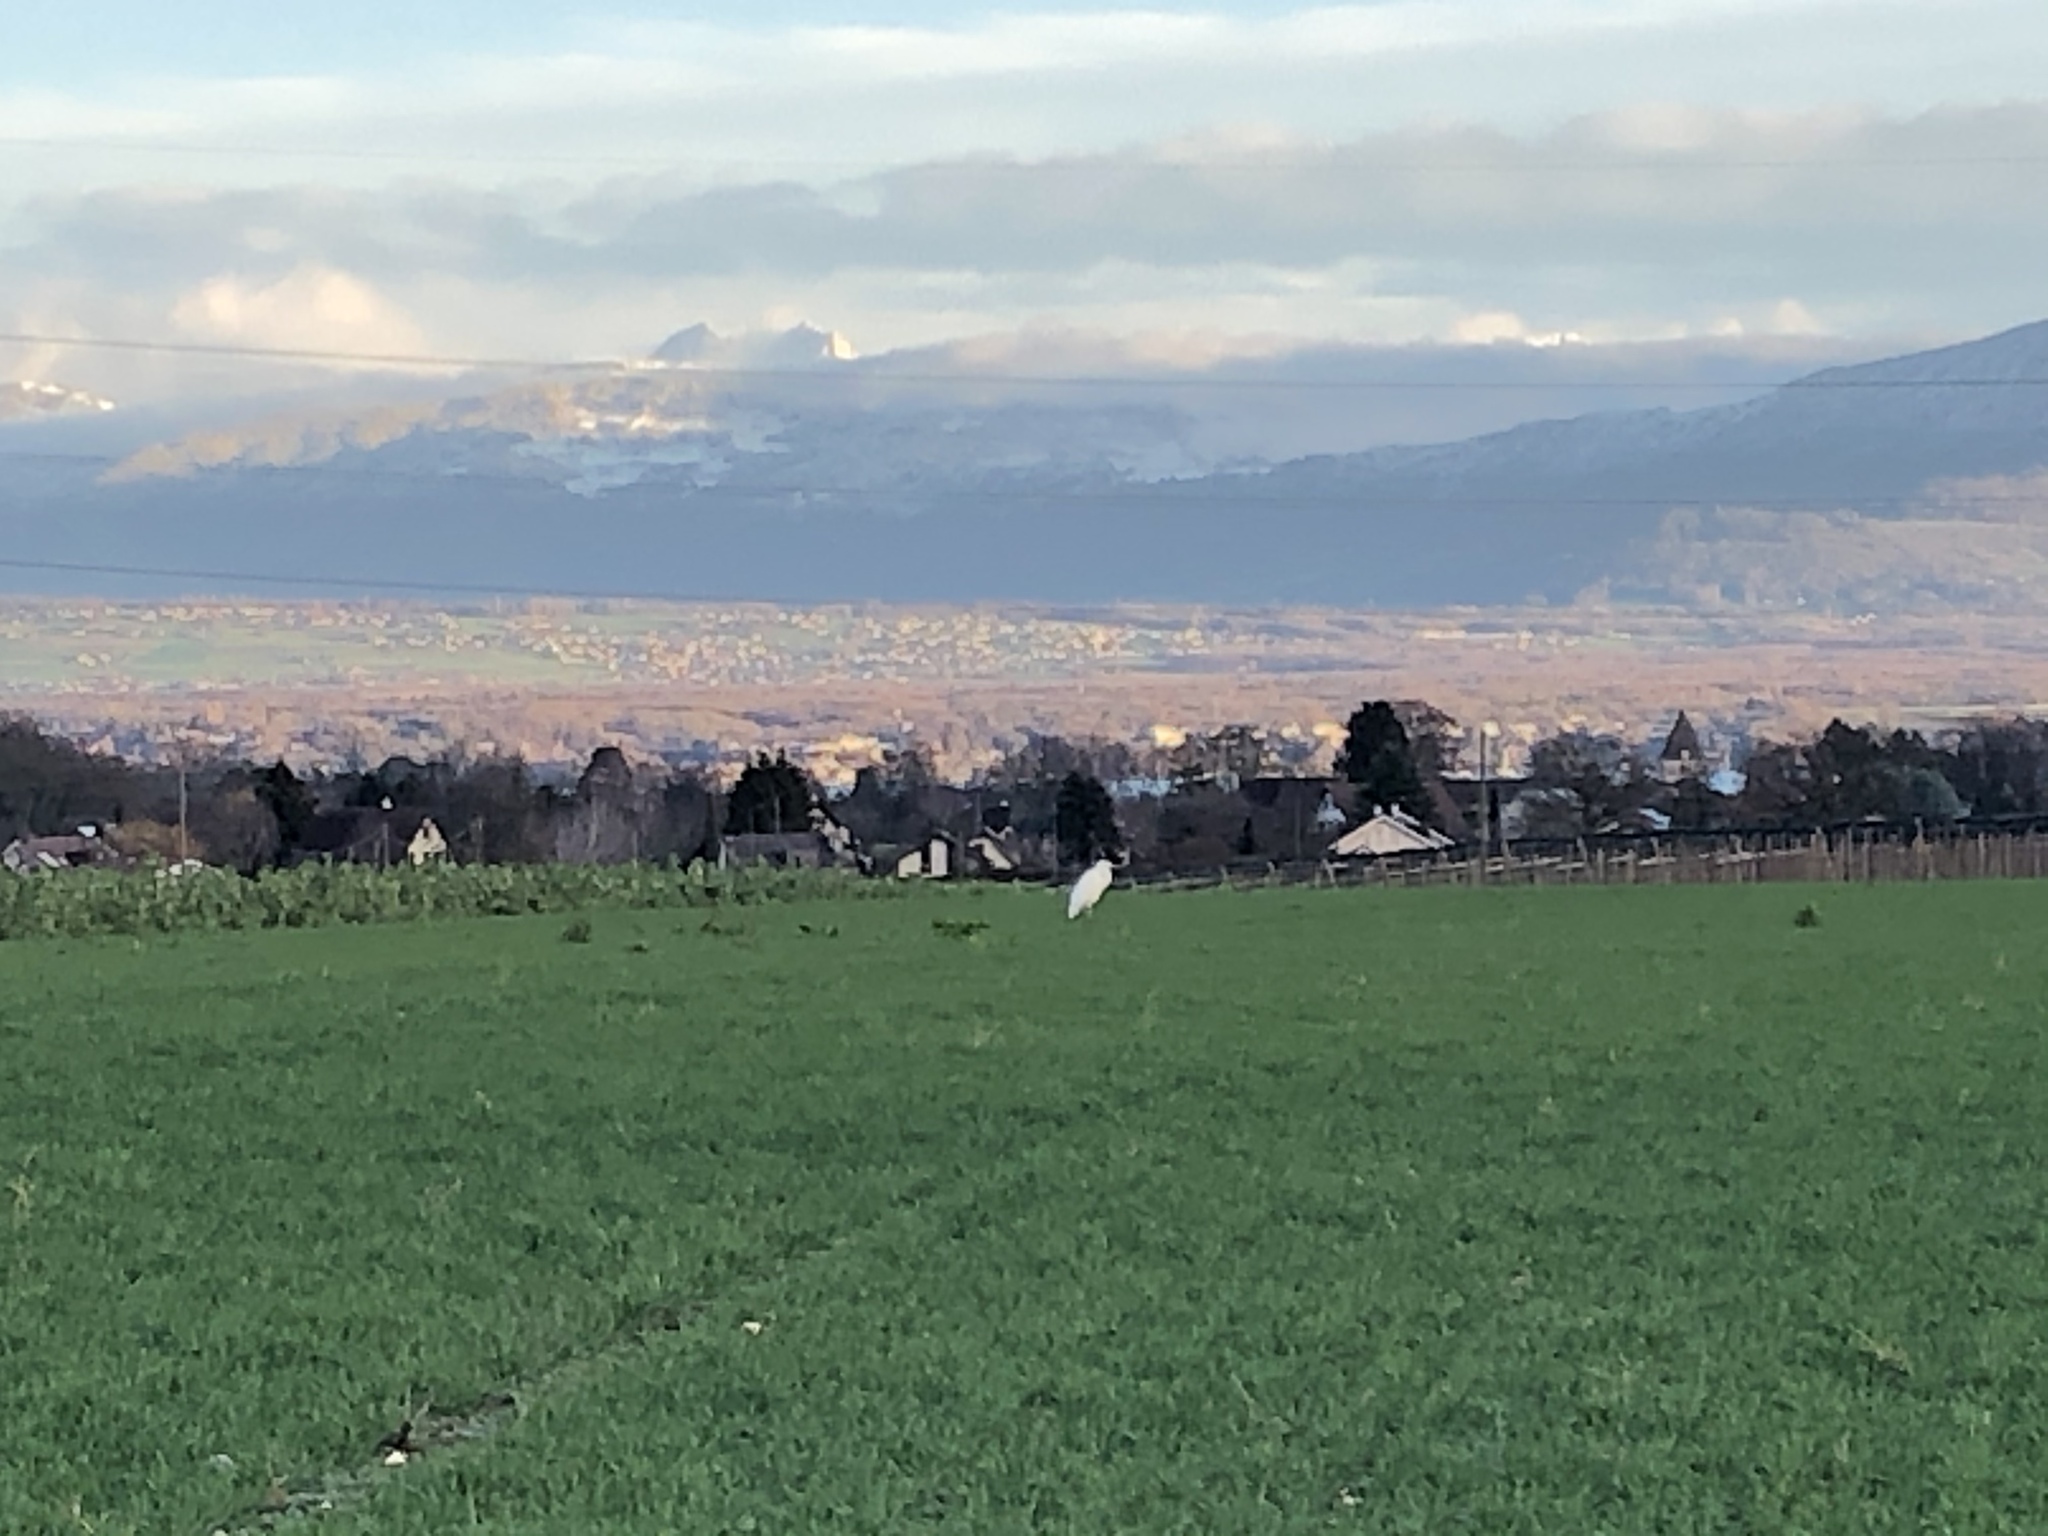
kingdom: Animalia
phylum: Chordata
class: Aves
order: Pelecaniformes
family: Ardeidae
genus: Ardea
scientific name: Ardea alba
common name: Great egret
